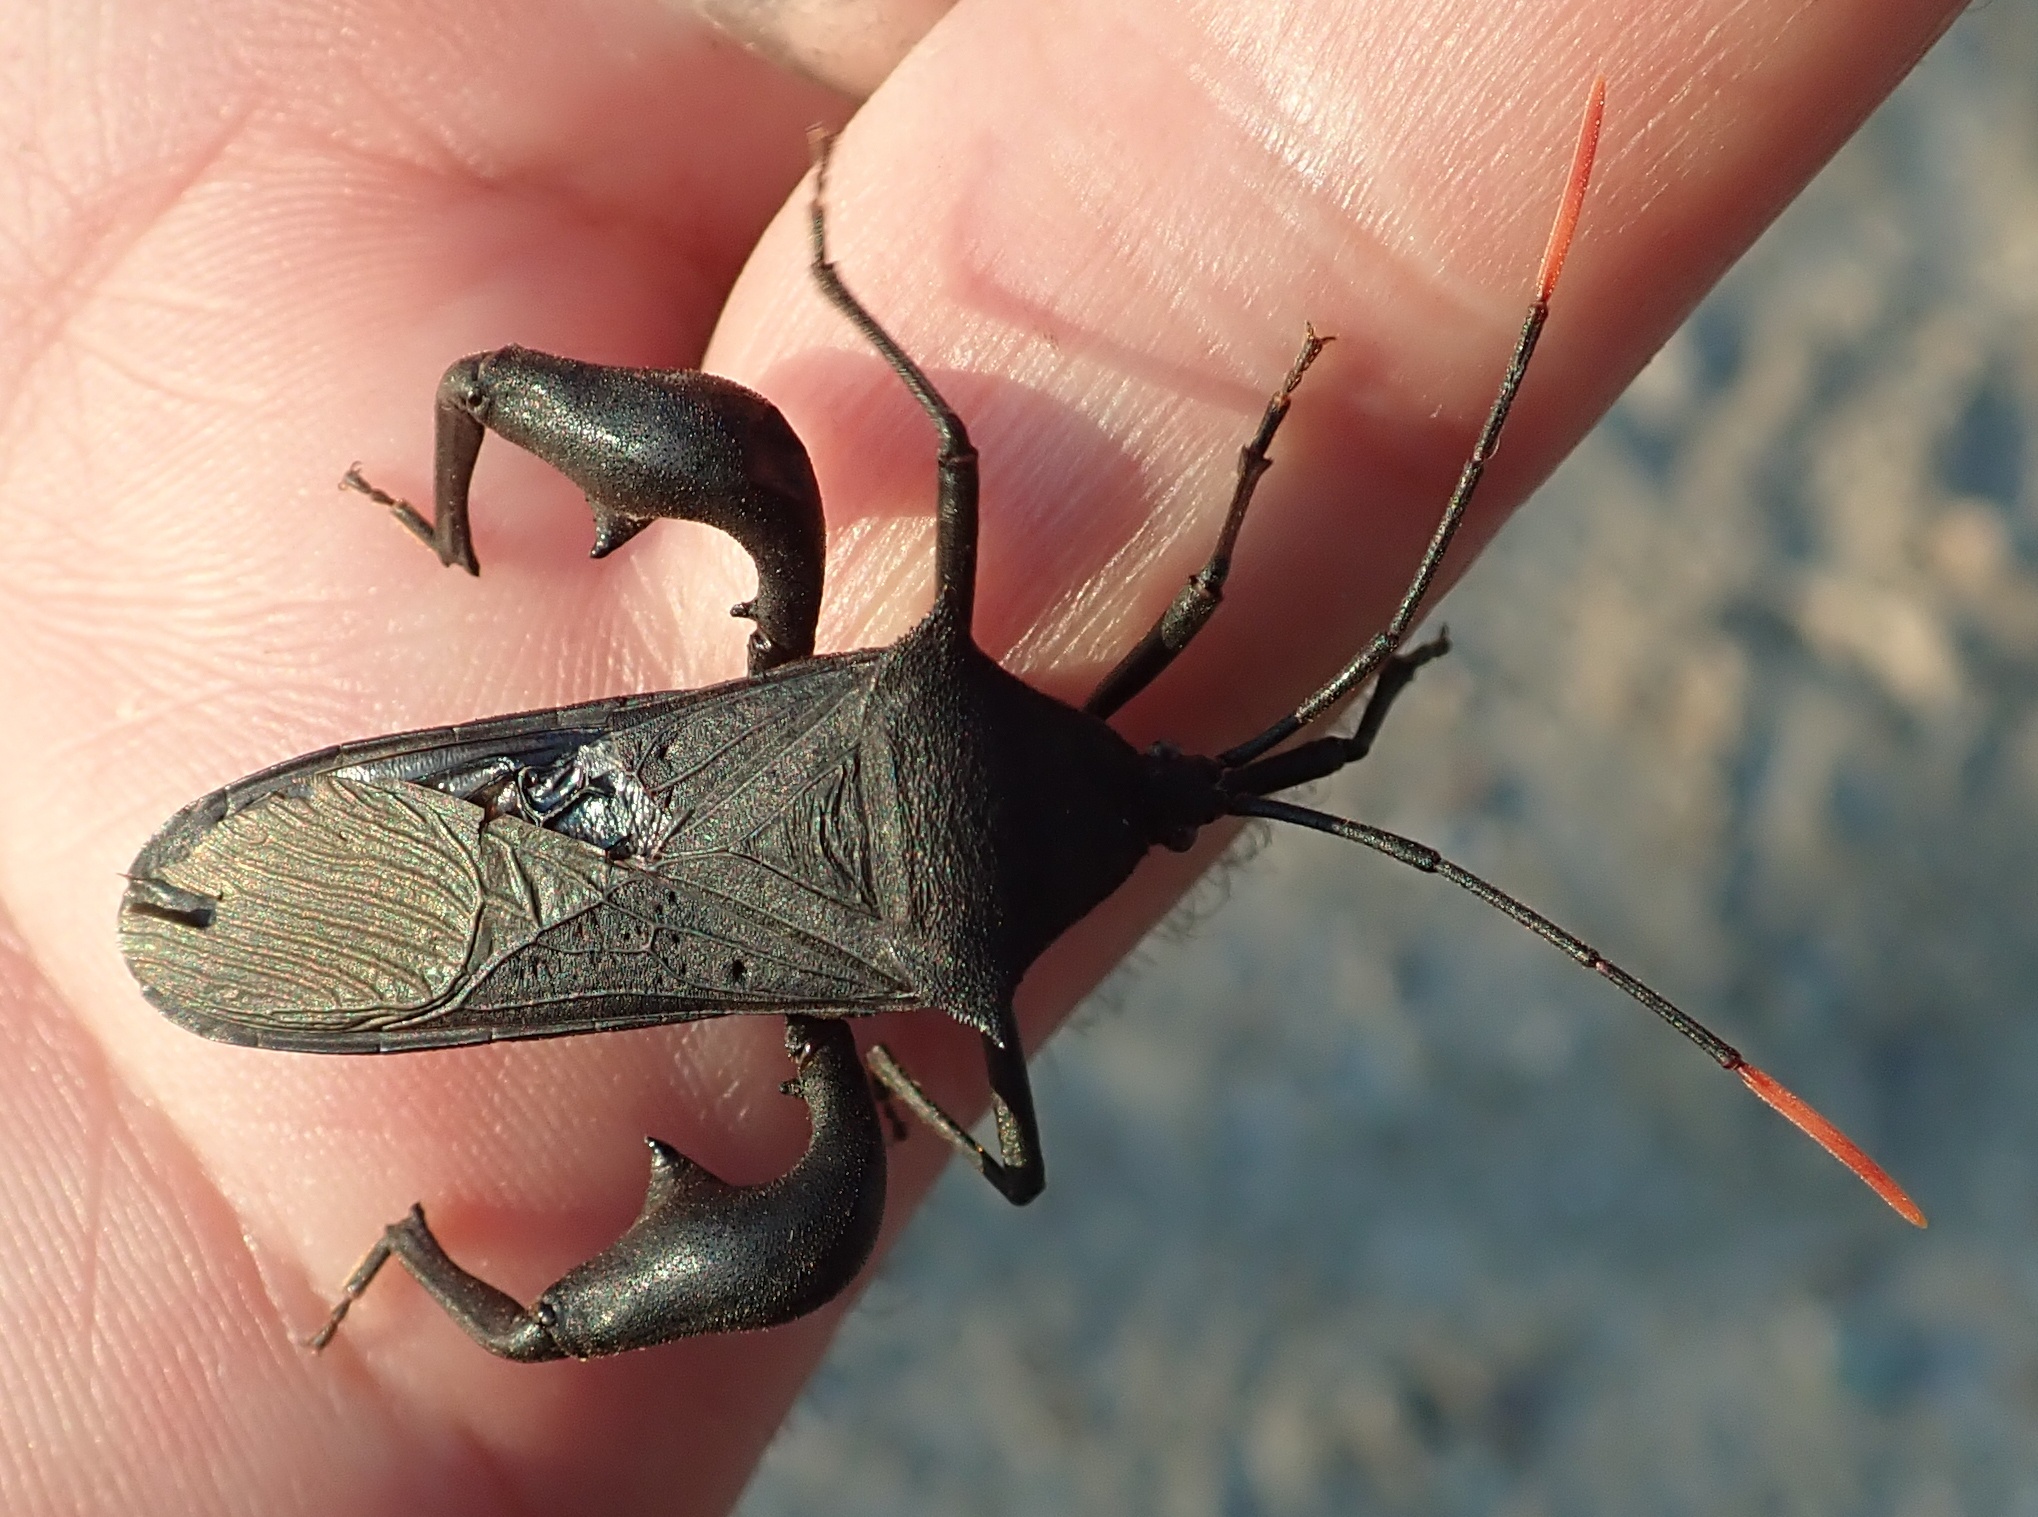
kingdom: Animalia
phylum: Arthropoda
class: Insecta
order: Hemiptera
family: Coreidae
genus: Anoplocnemis
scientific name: Anoplocnemis curvipes
